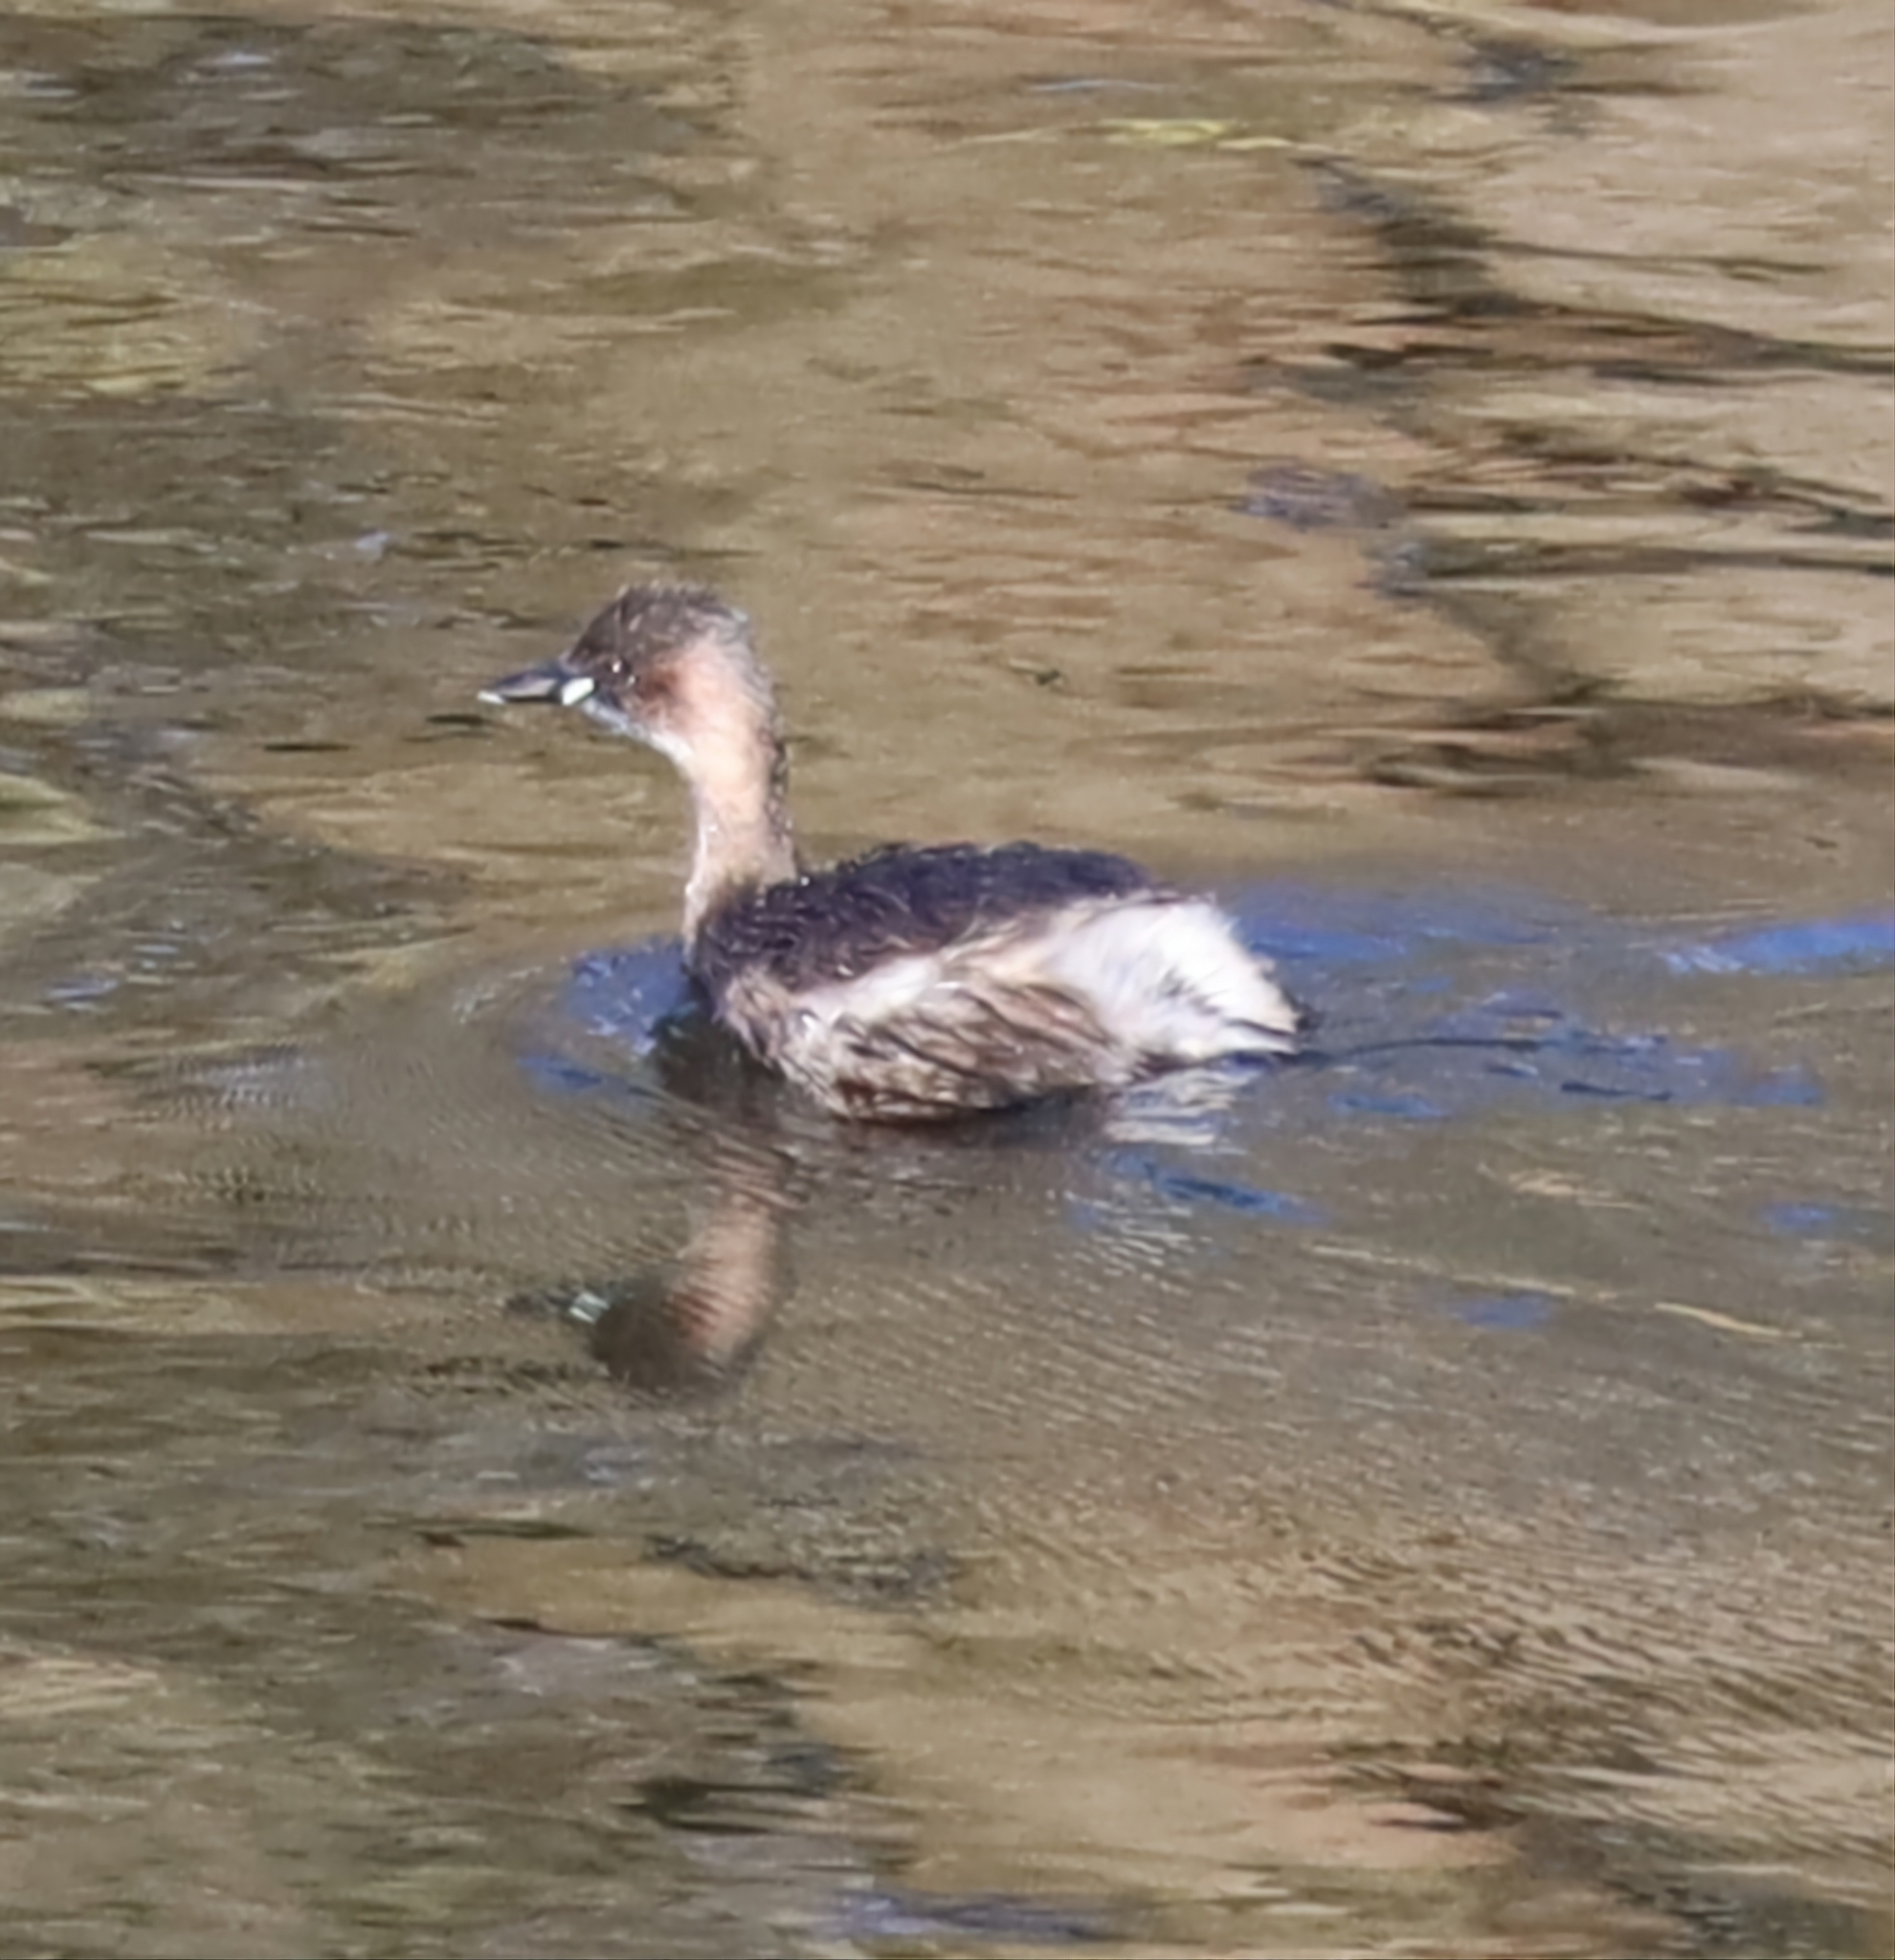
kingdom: Animalia
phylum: Chordata
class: Aves
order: Podicipediformes
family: Podicipedidae
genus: Tachybaptus
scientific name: Tachybaptus ruficollis
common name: Little grebe
